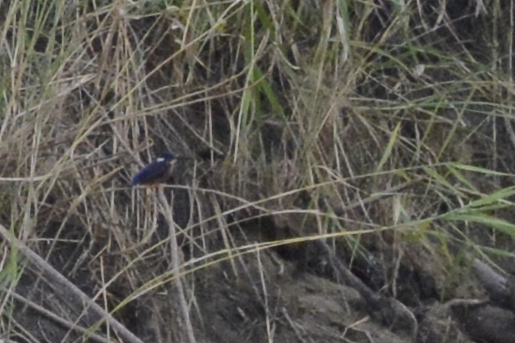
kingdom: Animalia
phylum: Chordata
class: Aves
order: Coraciiformes
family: Alcedinidae
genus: Ceyx
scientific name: Ceyx azureus
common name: Azure kingfisher
